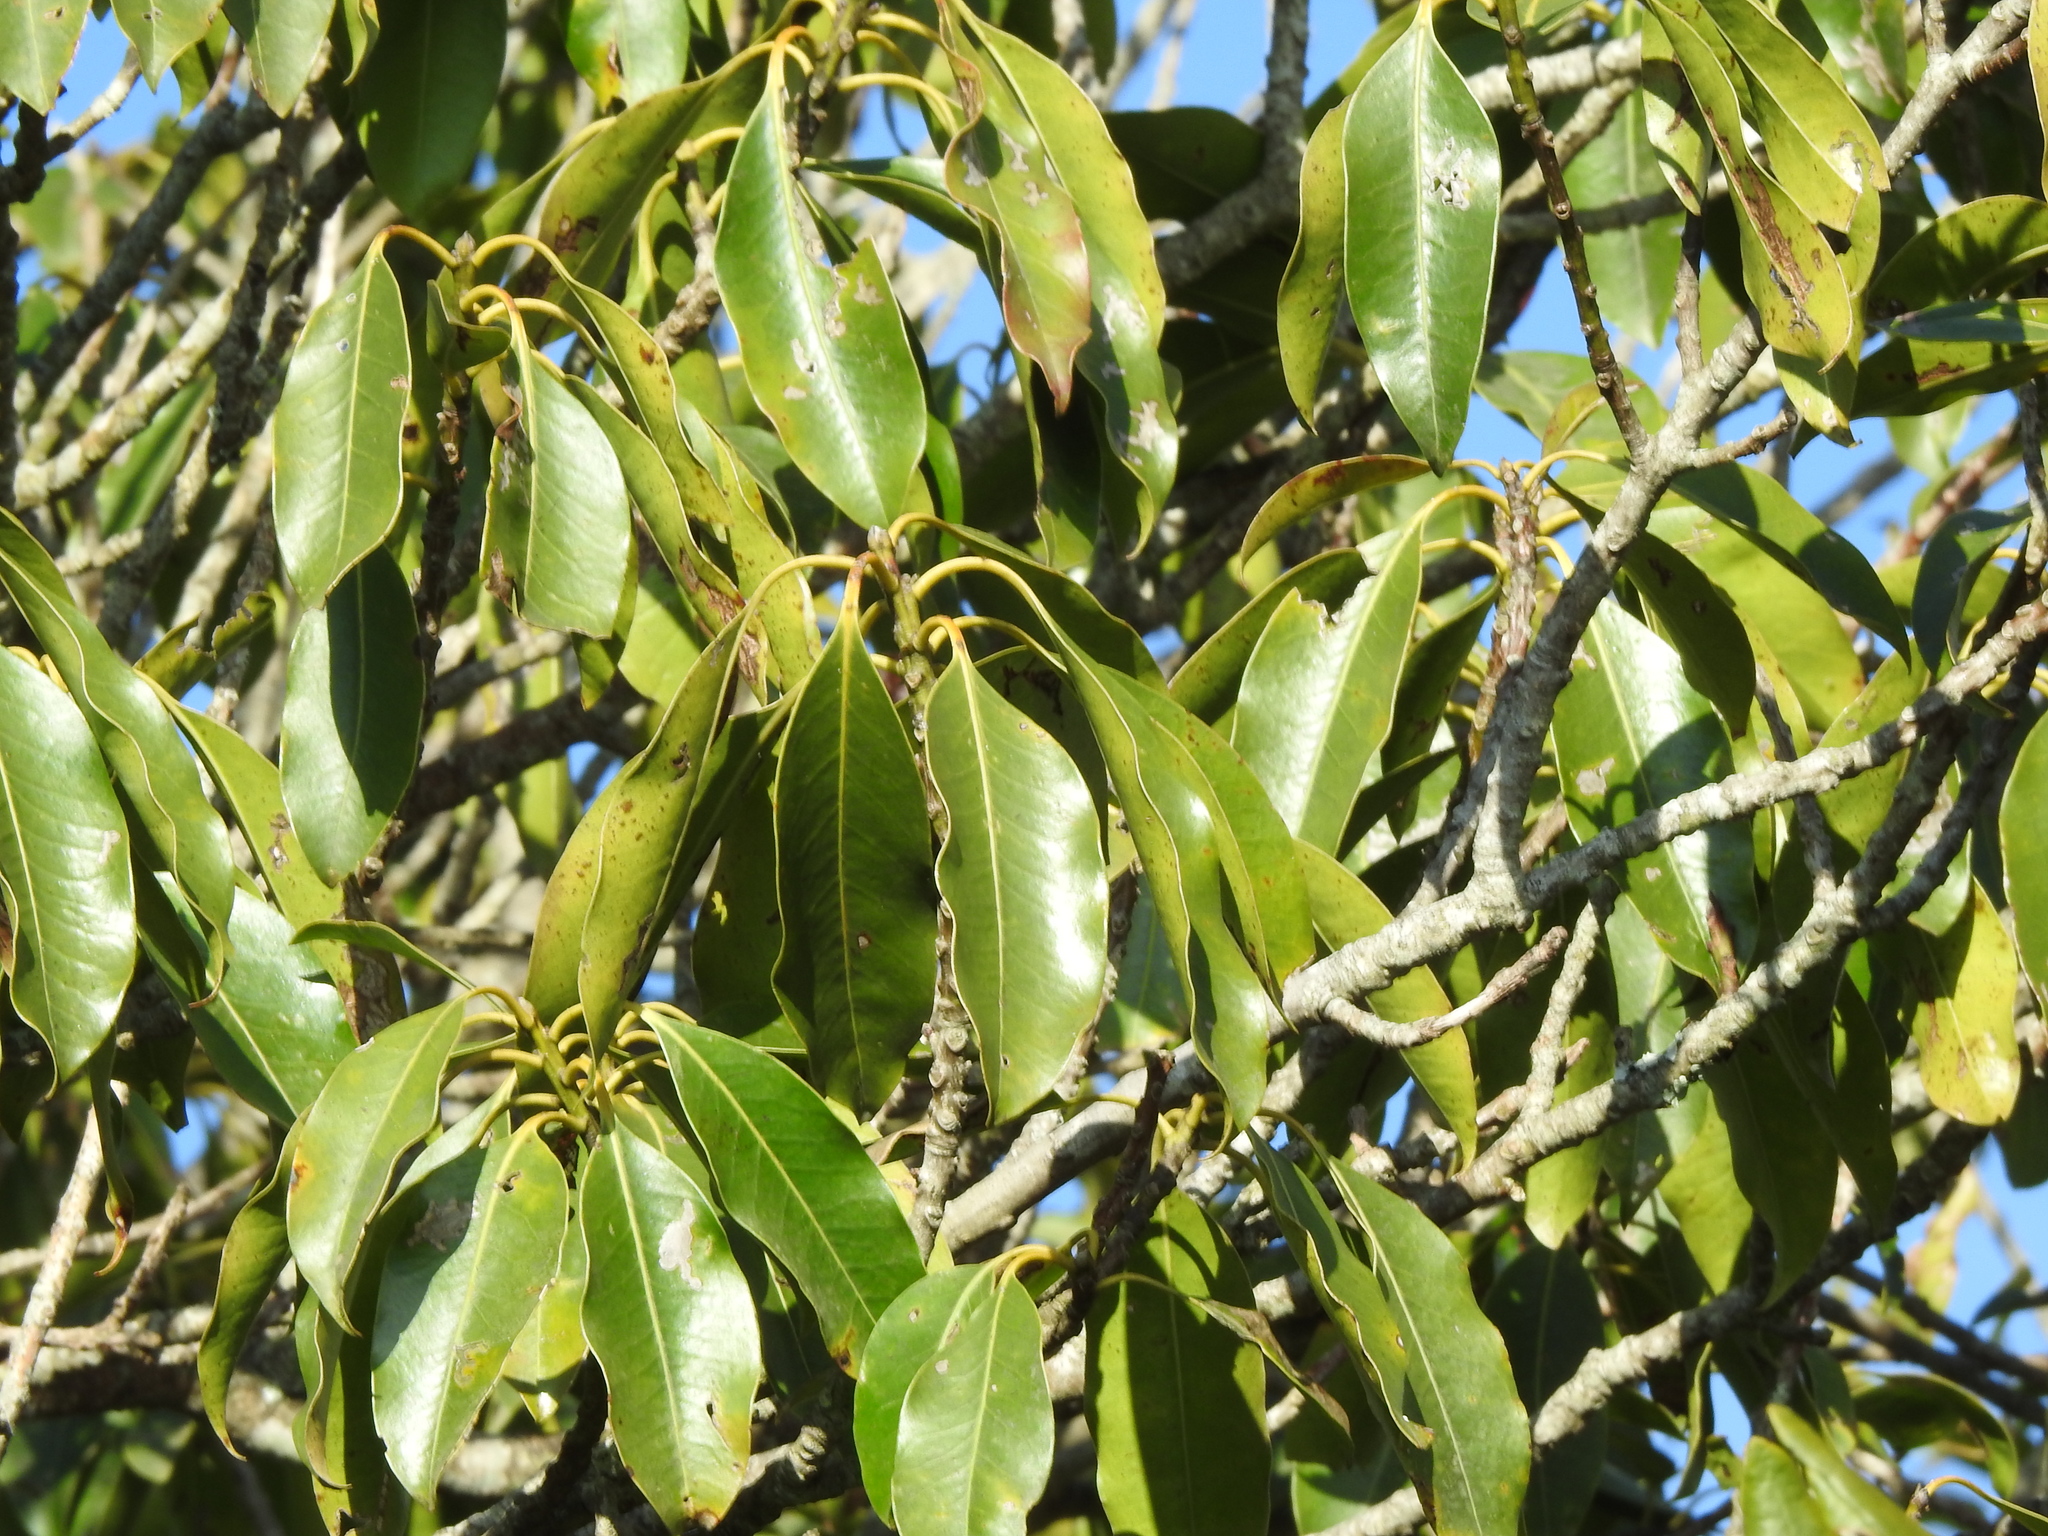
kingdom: Plantae
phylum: Tracheophyta
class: Magnoliopsida
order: Aquifoliales
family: Aquifoliaceae
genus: Ilex
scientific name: Ilex tugitakayamensis
